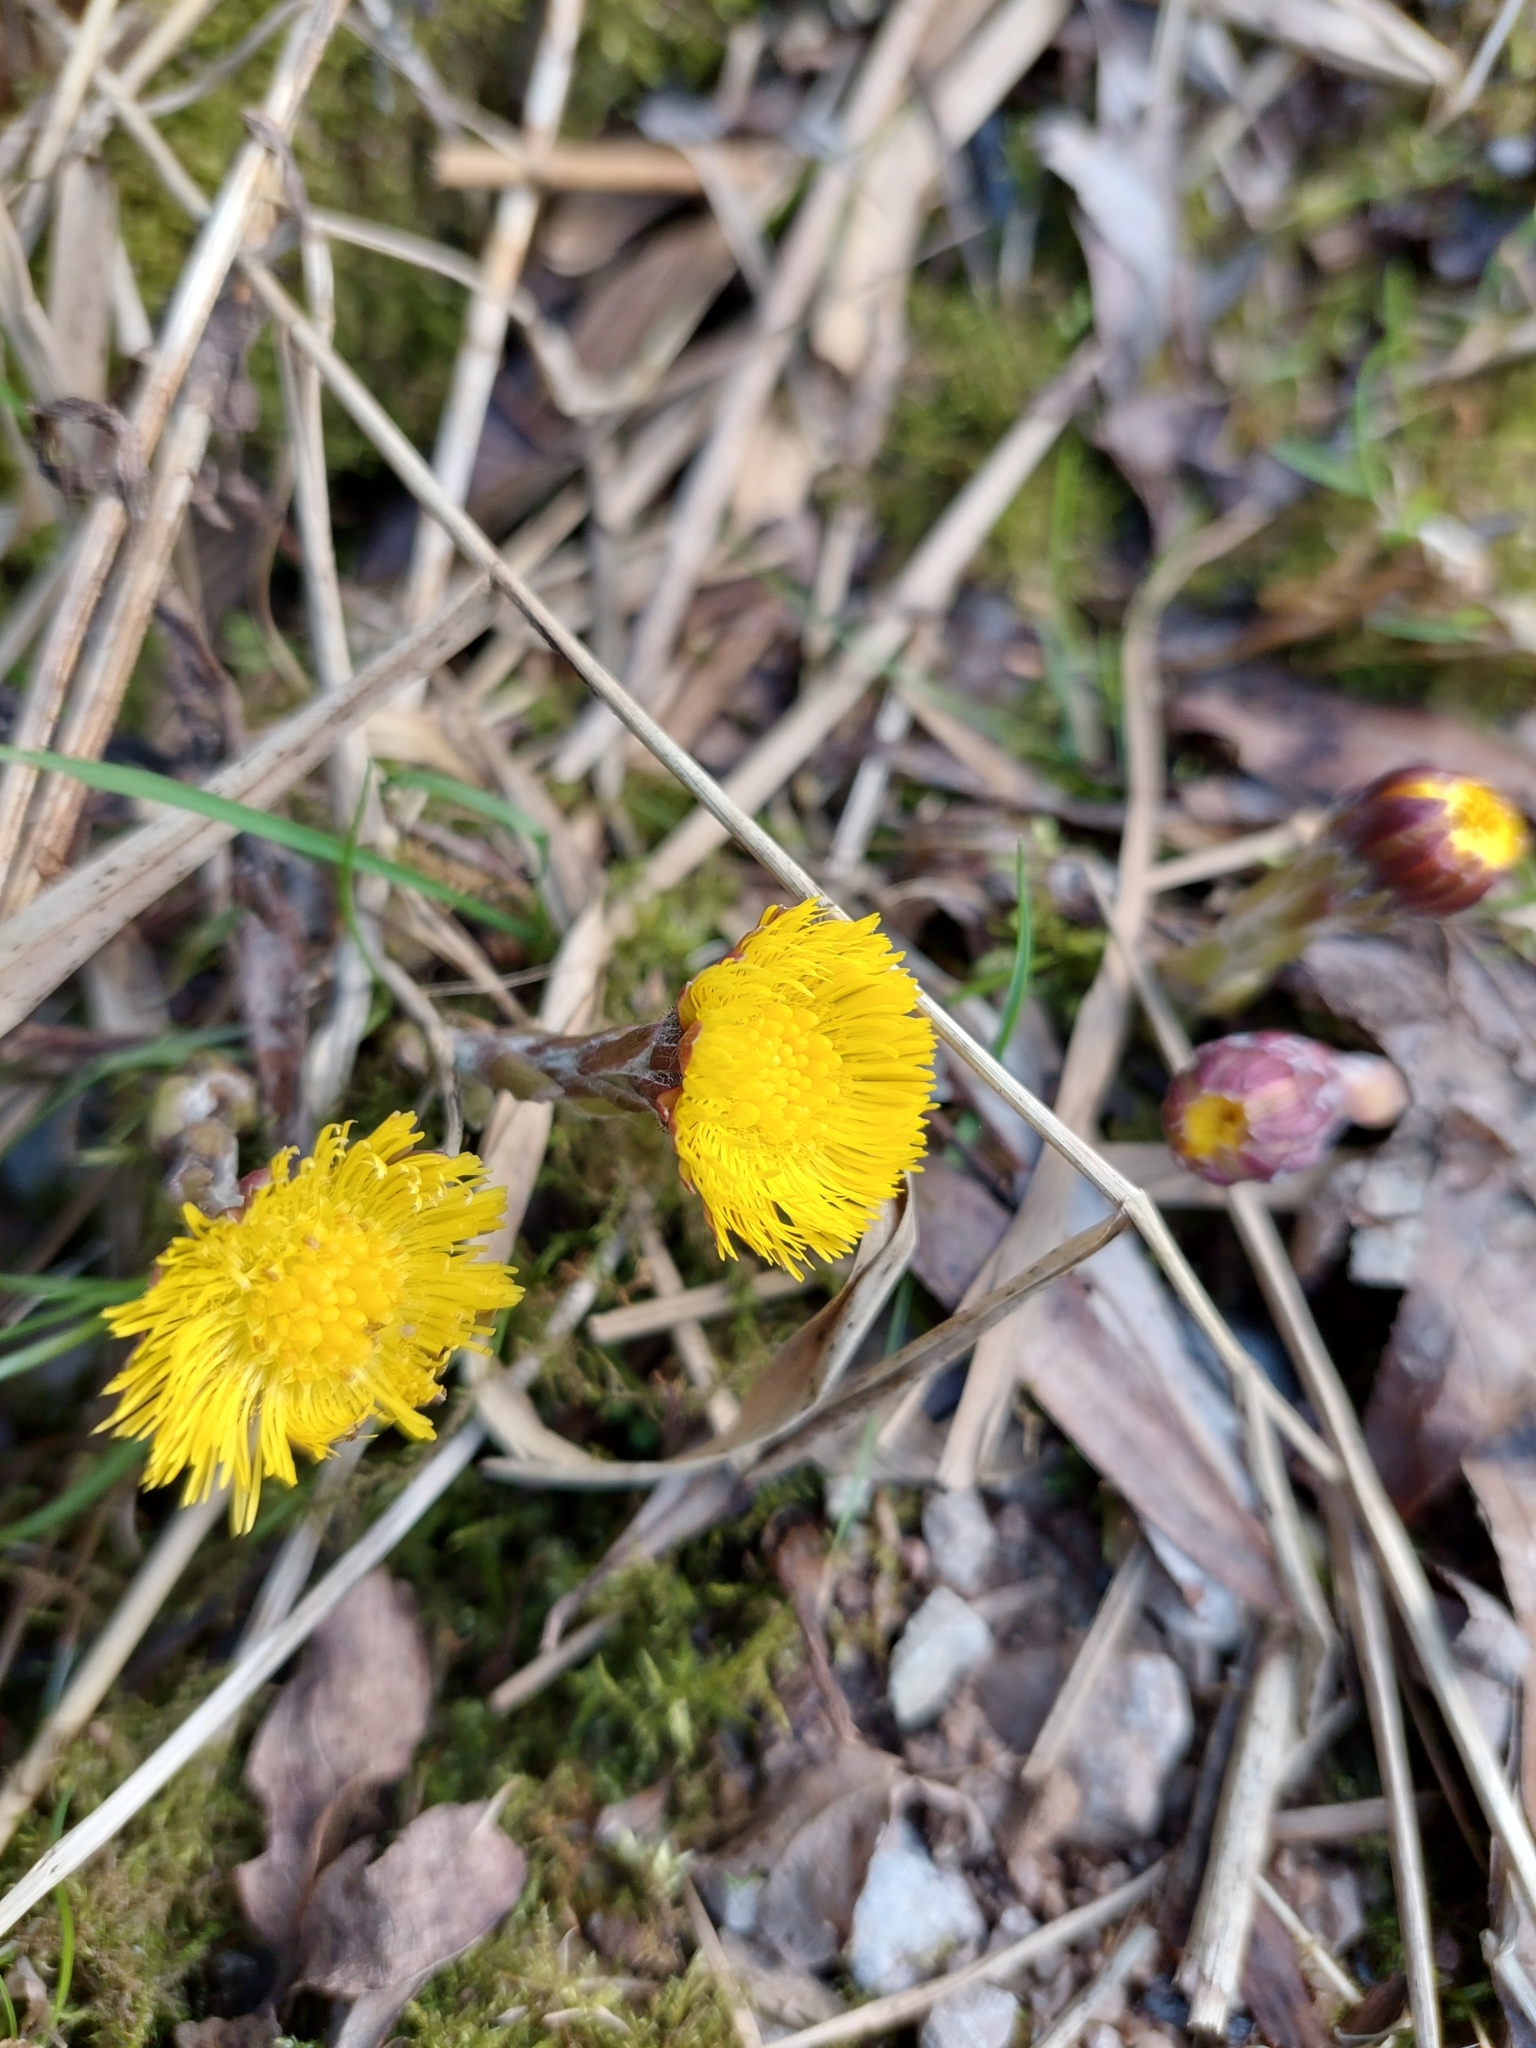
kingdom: Plantae
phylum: Tracheophyta
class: Magnoliopsida
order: Asterales
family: Asteraceae
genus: Tussilago
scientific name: Tussilago farfara
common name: Coltsfoot
